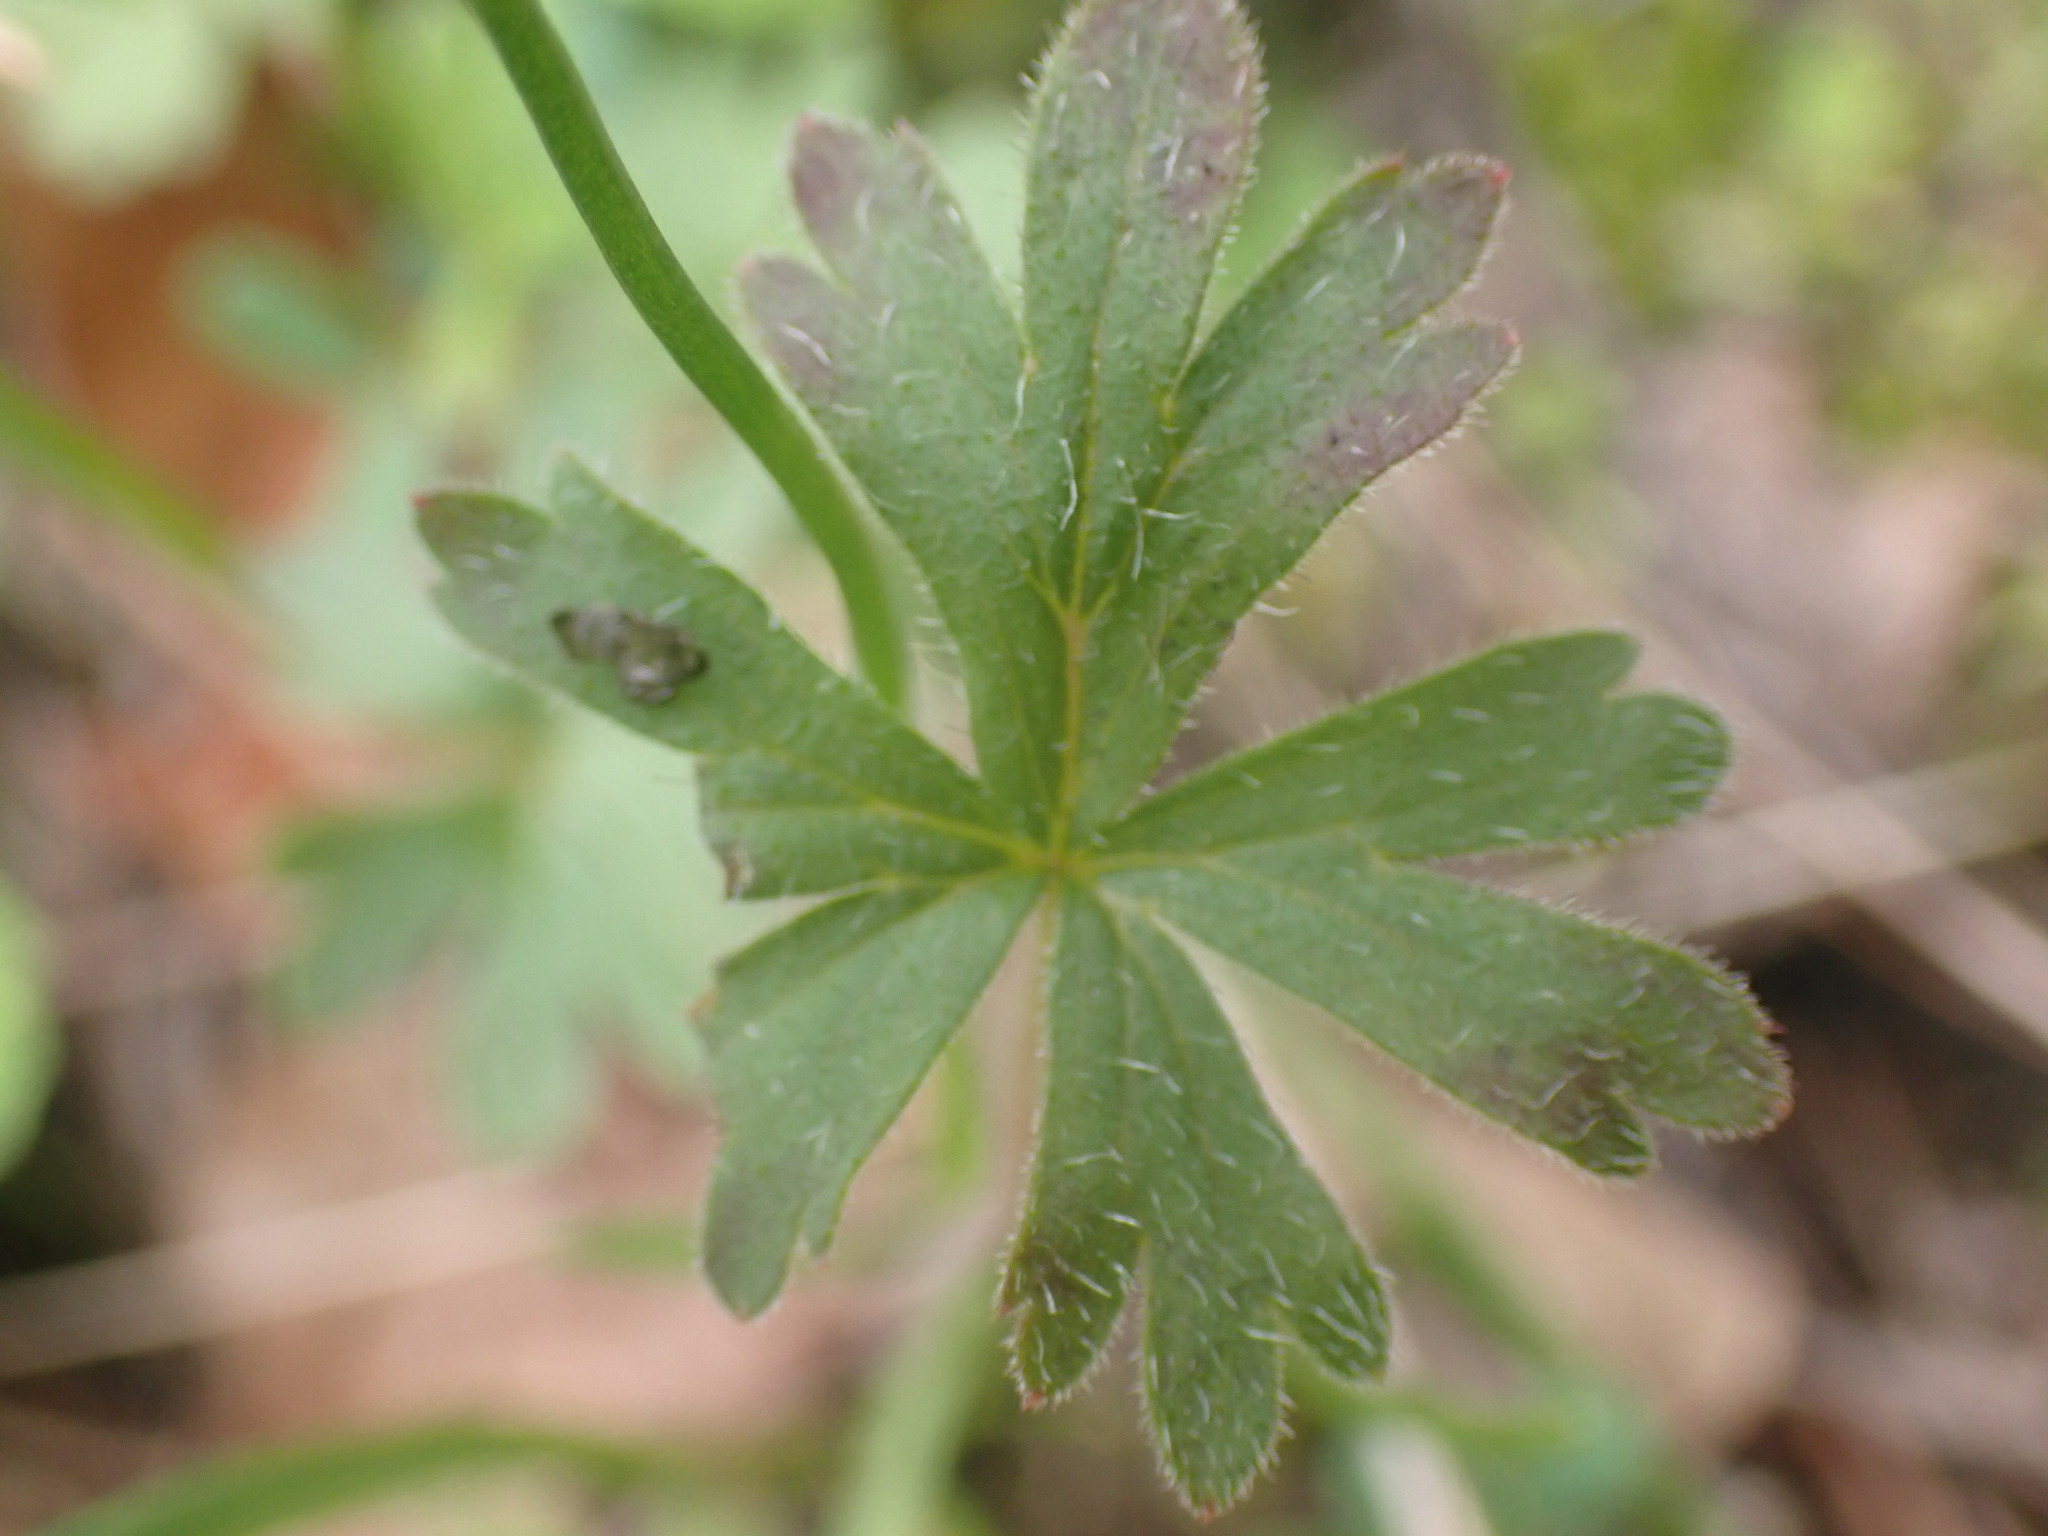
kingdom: Plantae
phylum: Tracheophyta
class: Magnoliopsida
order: Saxifragales
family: Saxifragaceae
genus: Lithophragma
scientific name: Lithophragma parviflorum
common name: Small-flowered fringe-cup
